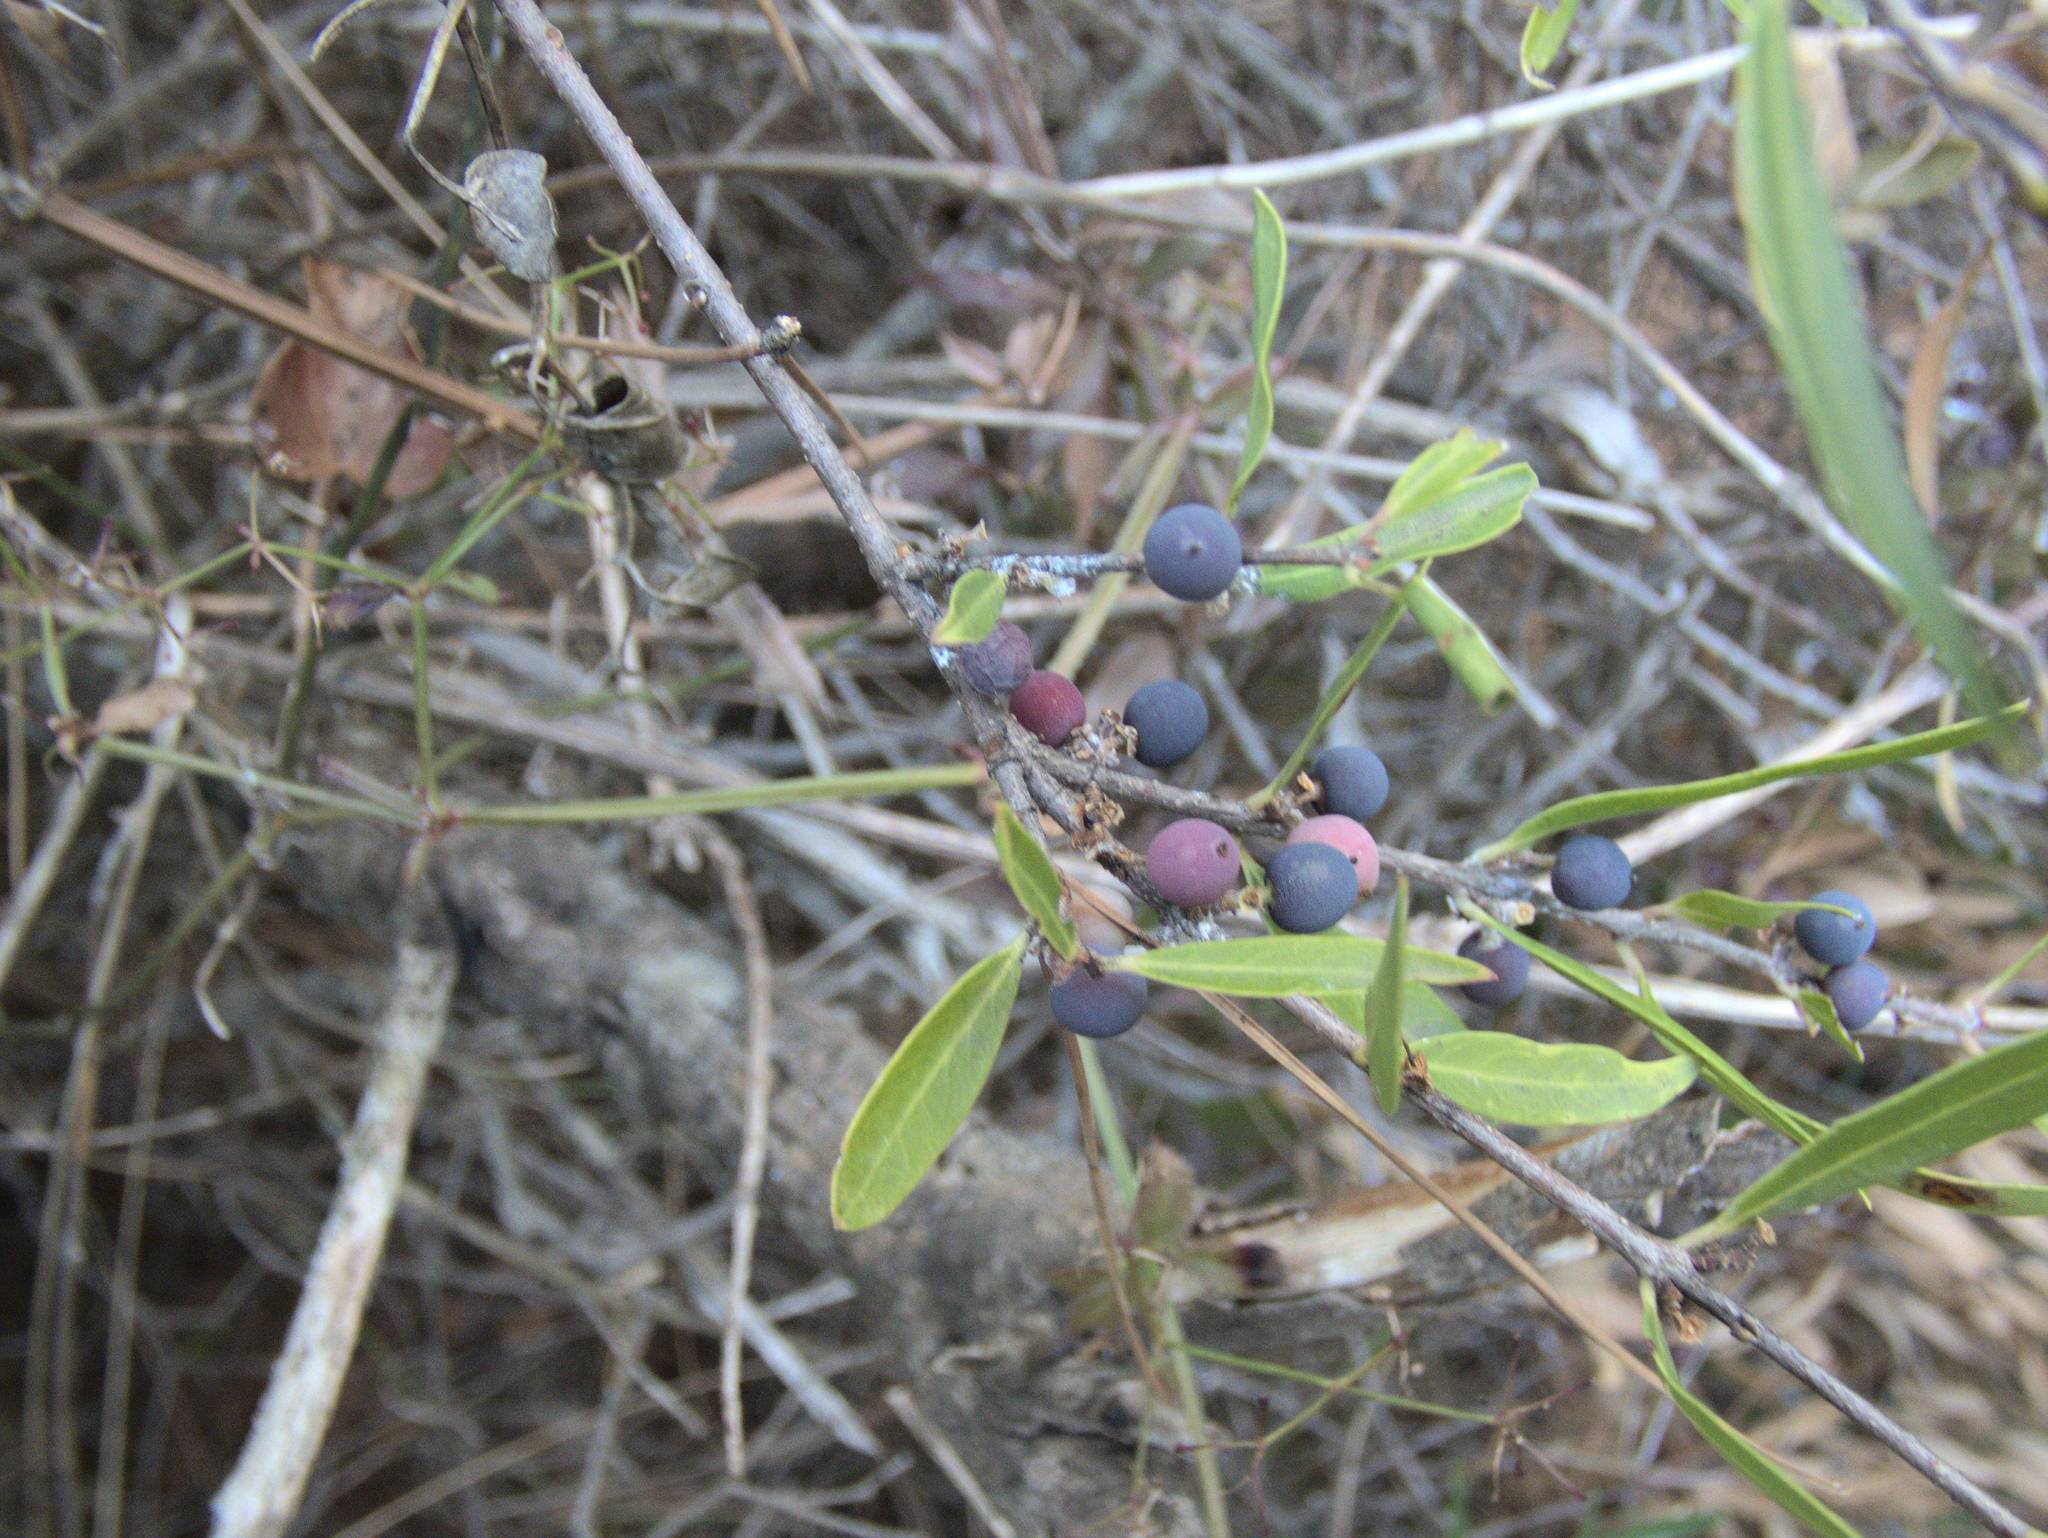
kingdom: Plantae
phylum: Tracheophyta
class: Magnoliopsida
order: Lamiales
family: Oleaceae
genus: Phillyrea
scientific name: Phillyrea angustifolia
